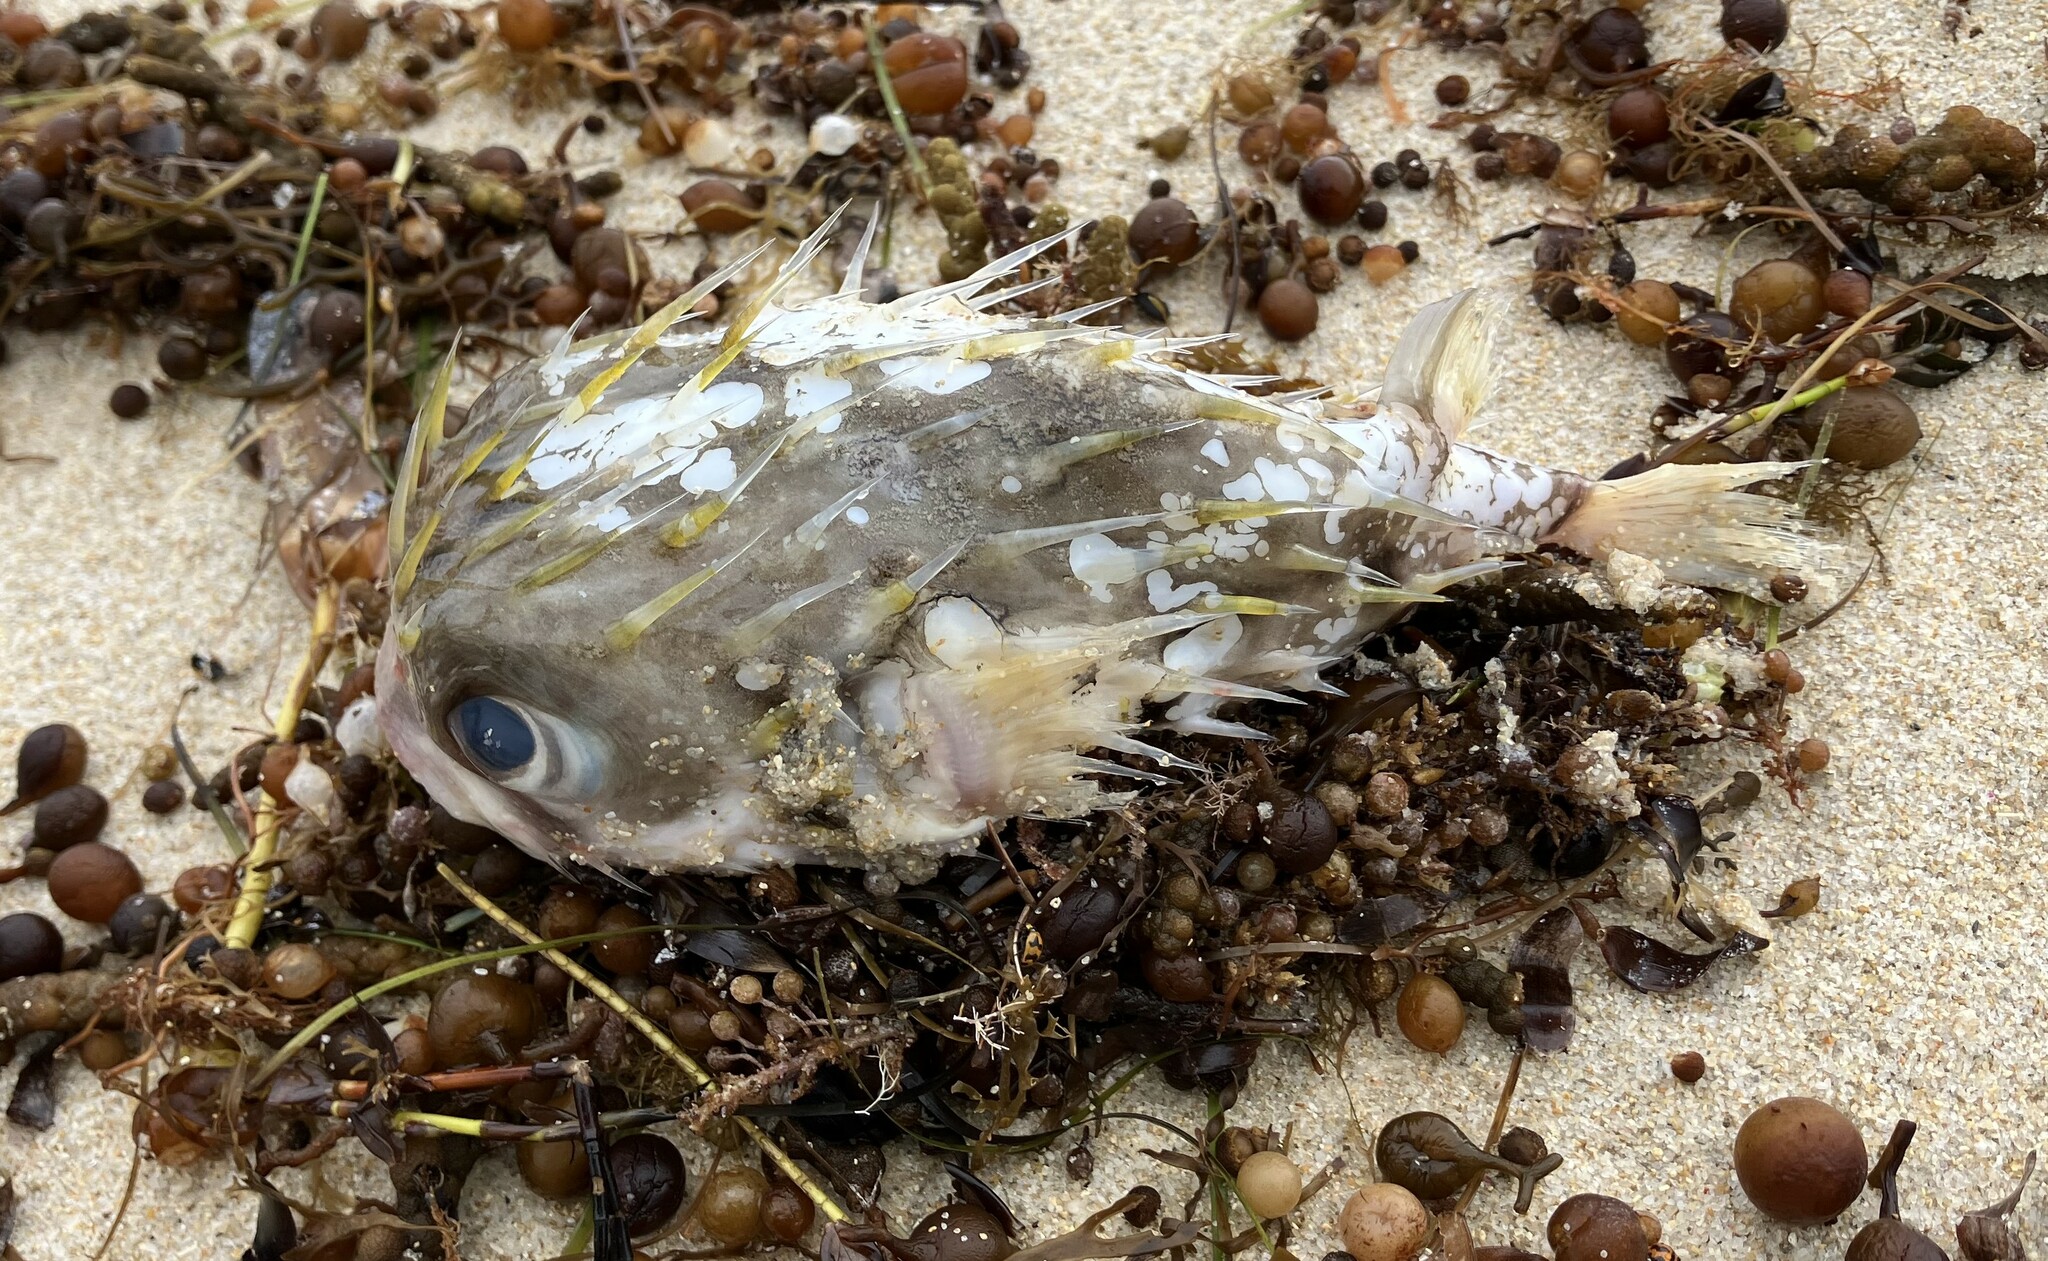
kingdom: Animalia
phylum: Chordata
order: Tetraodontiformes
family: Diodontidae
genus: Diodon
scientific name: Diodon nicthemerus
